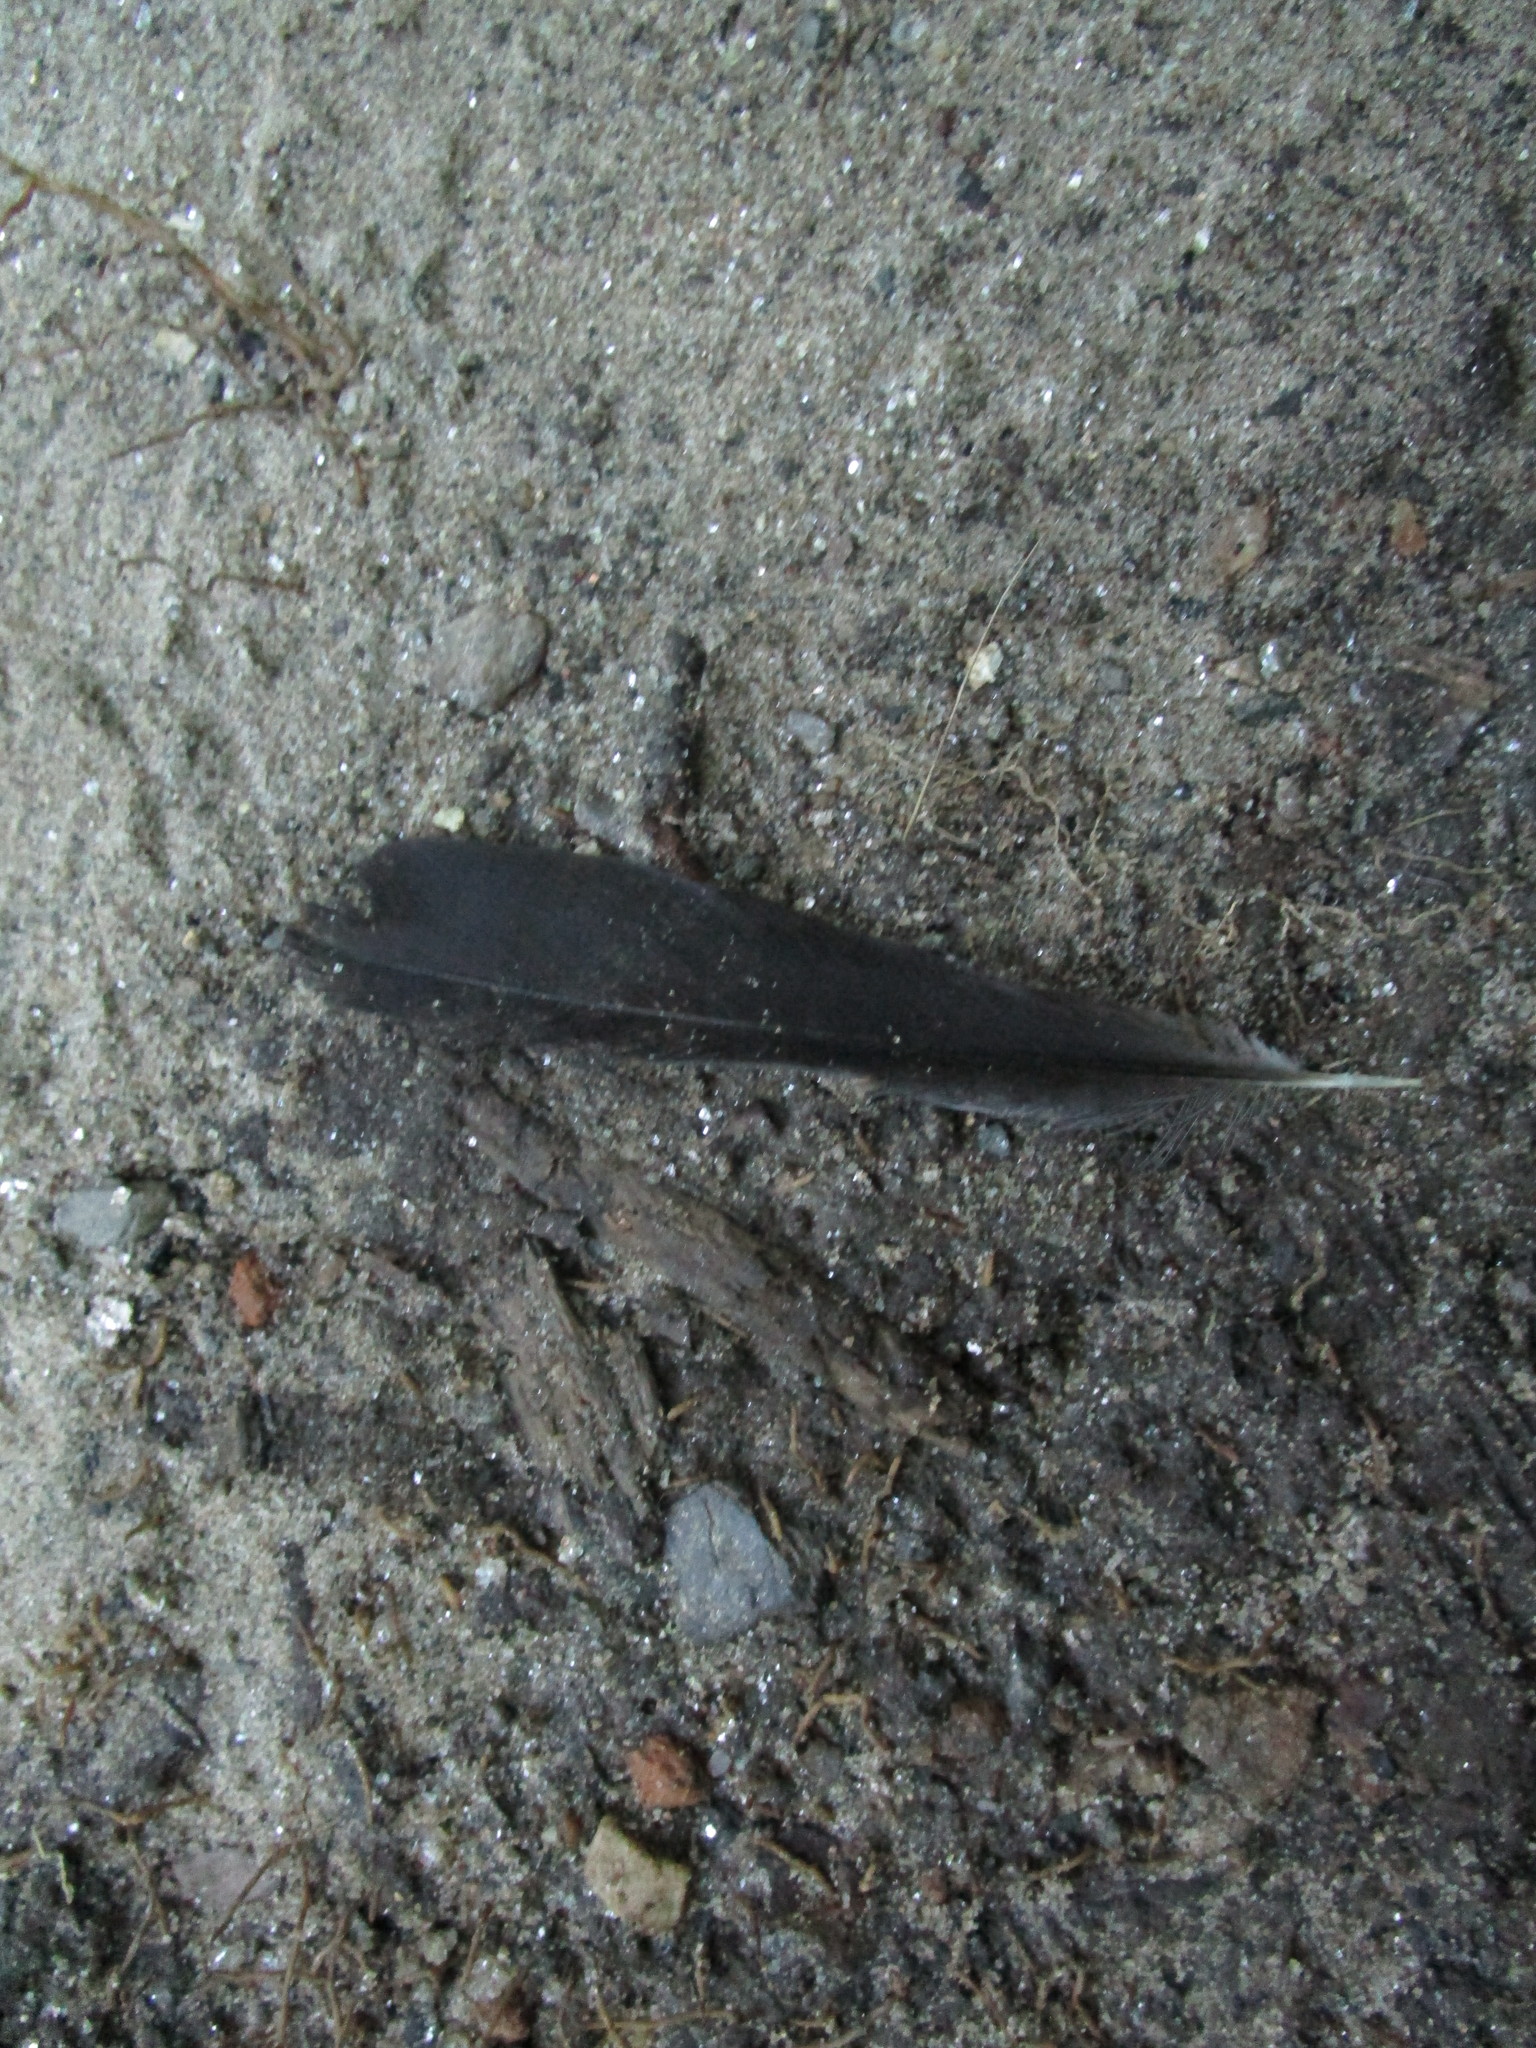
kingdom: Animalia
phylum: Chordata
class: Aves
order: Passeriformes
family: Turdidae
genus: Turdus
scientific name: Turdus migratorius
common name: American robin
